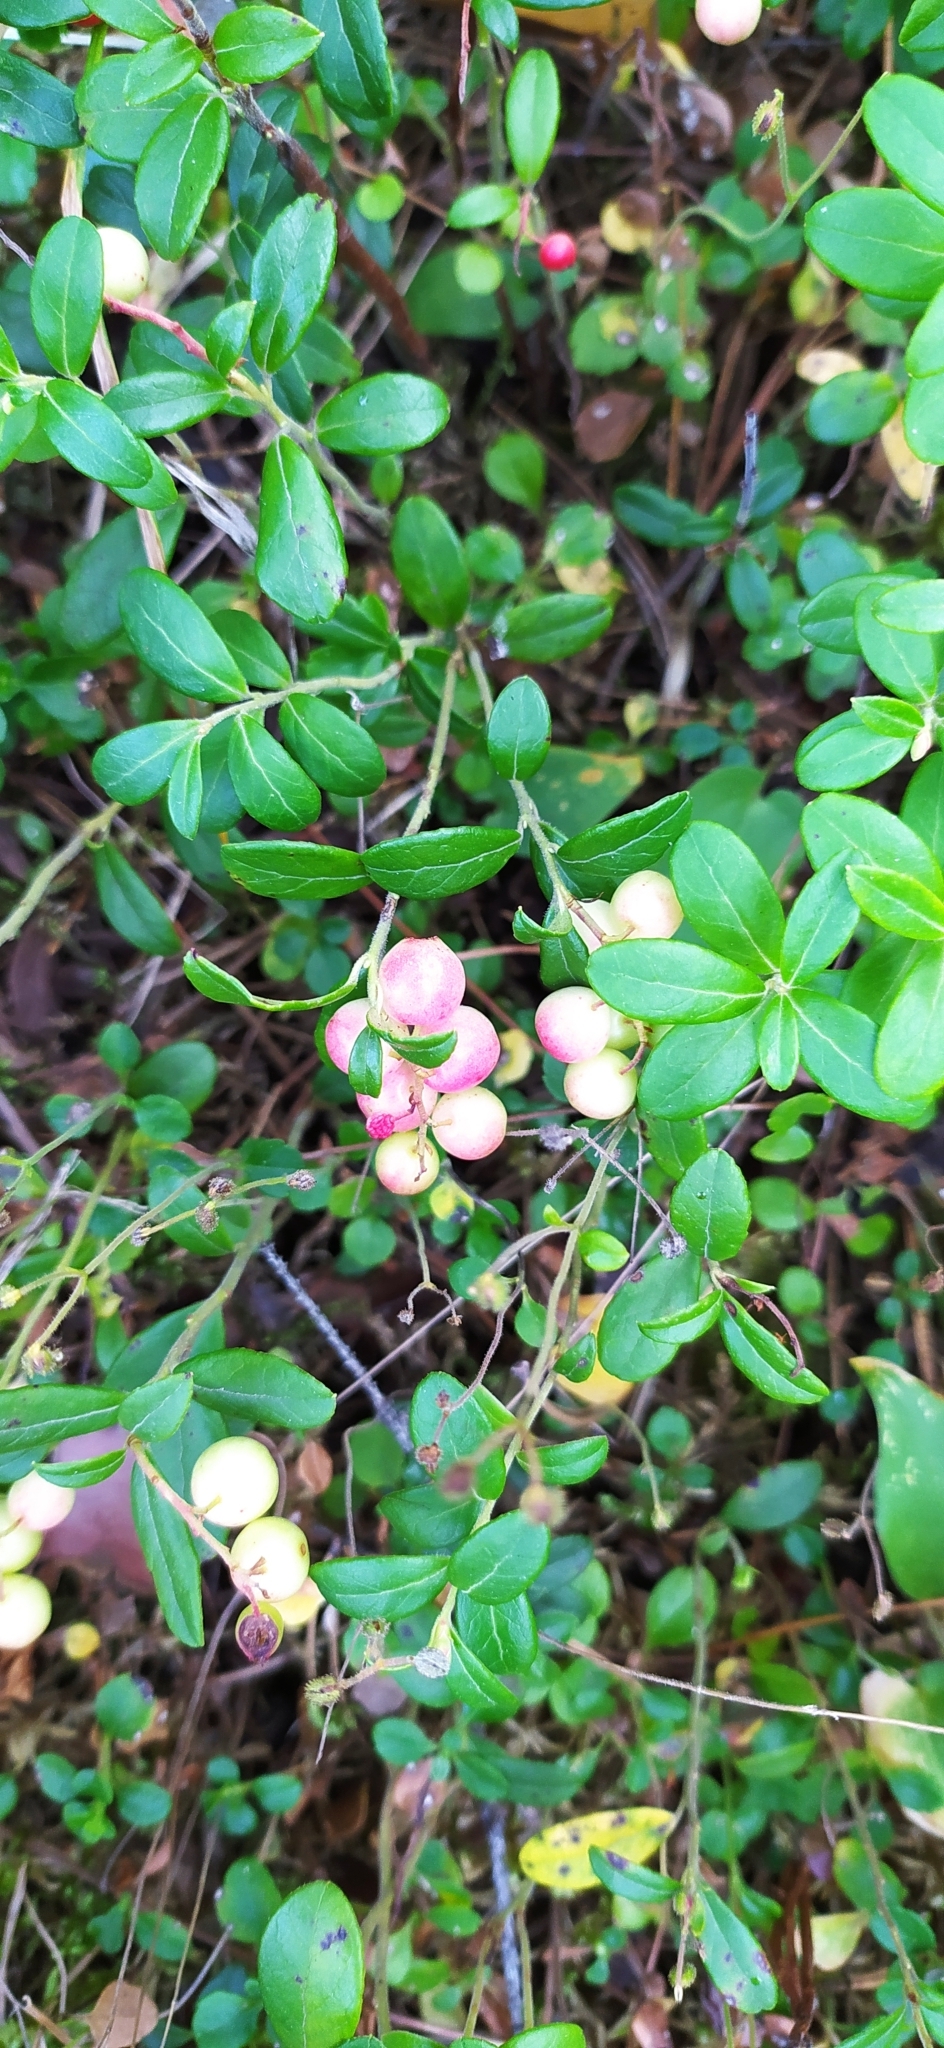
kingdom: Plantae
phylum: Tracheophyta
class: Magnoliopsida
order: Ericales
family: Ericaceae
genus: Vaccinium
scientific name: Vaccinium vitis-idaea
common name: Cowberry
